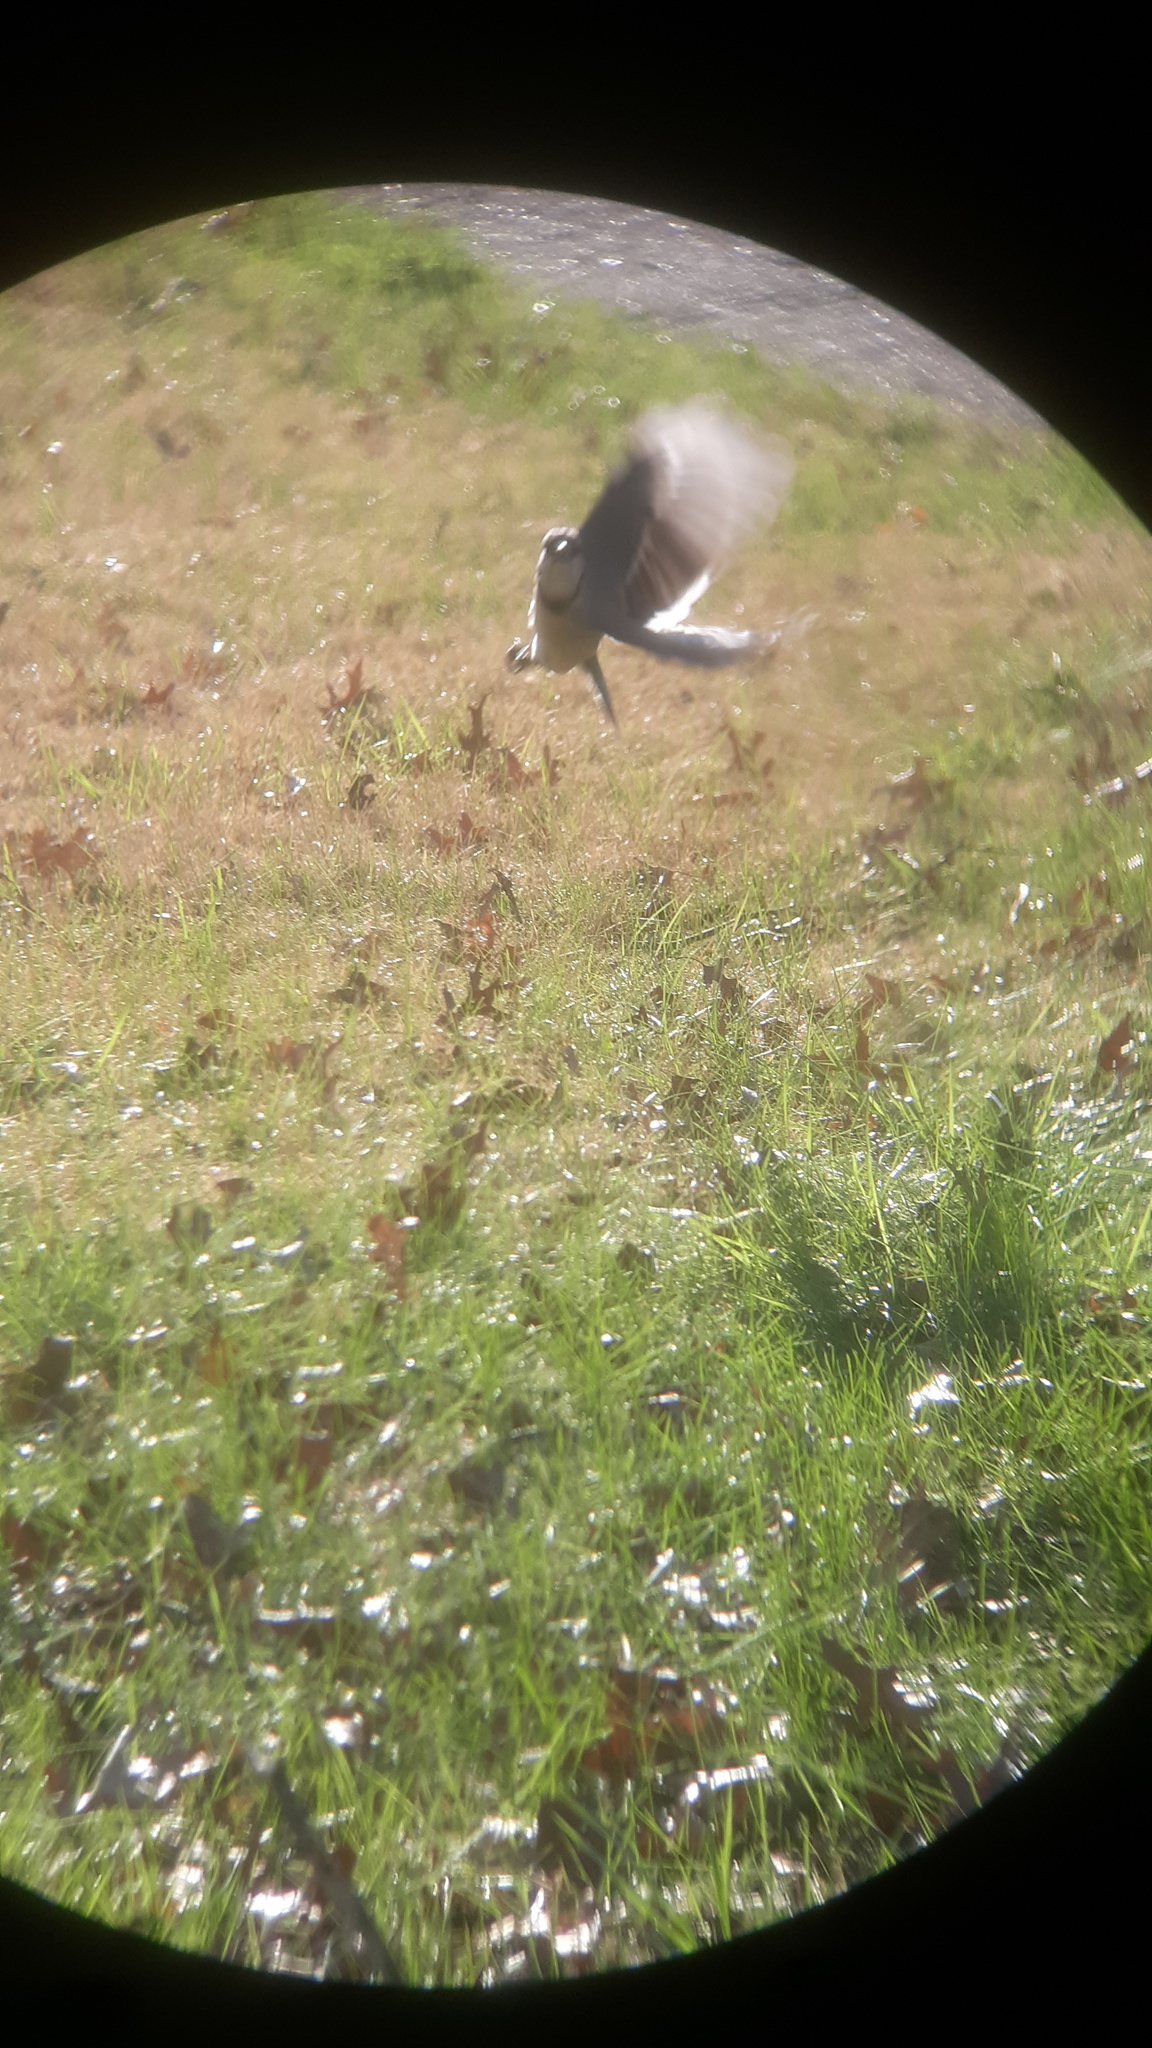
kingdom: Animalia
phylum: Chordata
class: Aves
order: Passeriformes
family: Corvidae
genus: Cyanocitta
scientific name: Cyanocitta cristata
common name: Blue jay
